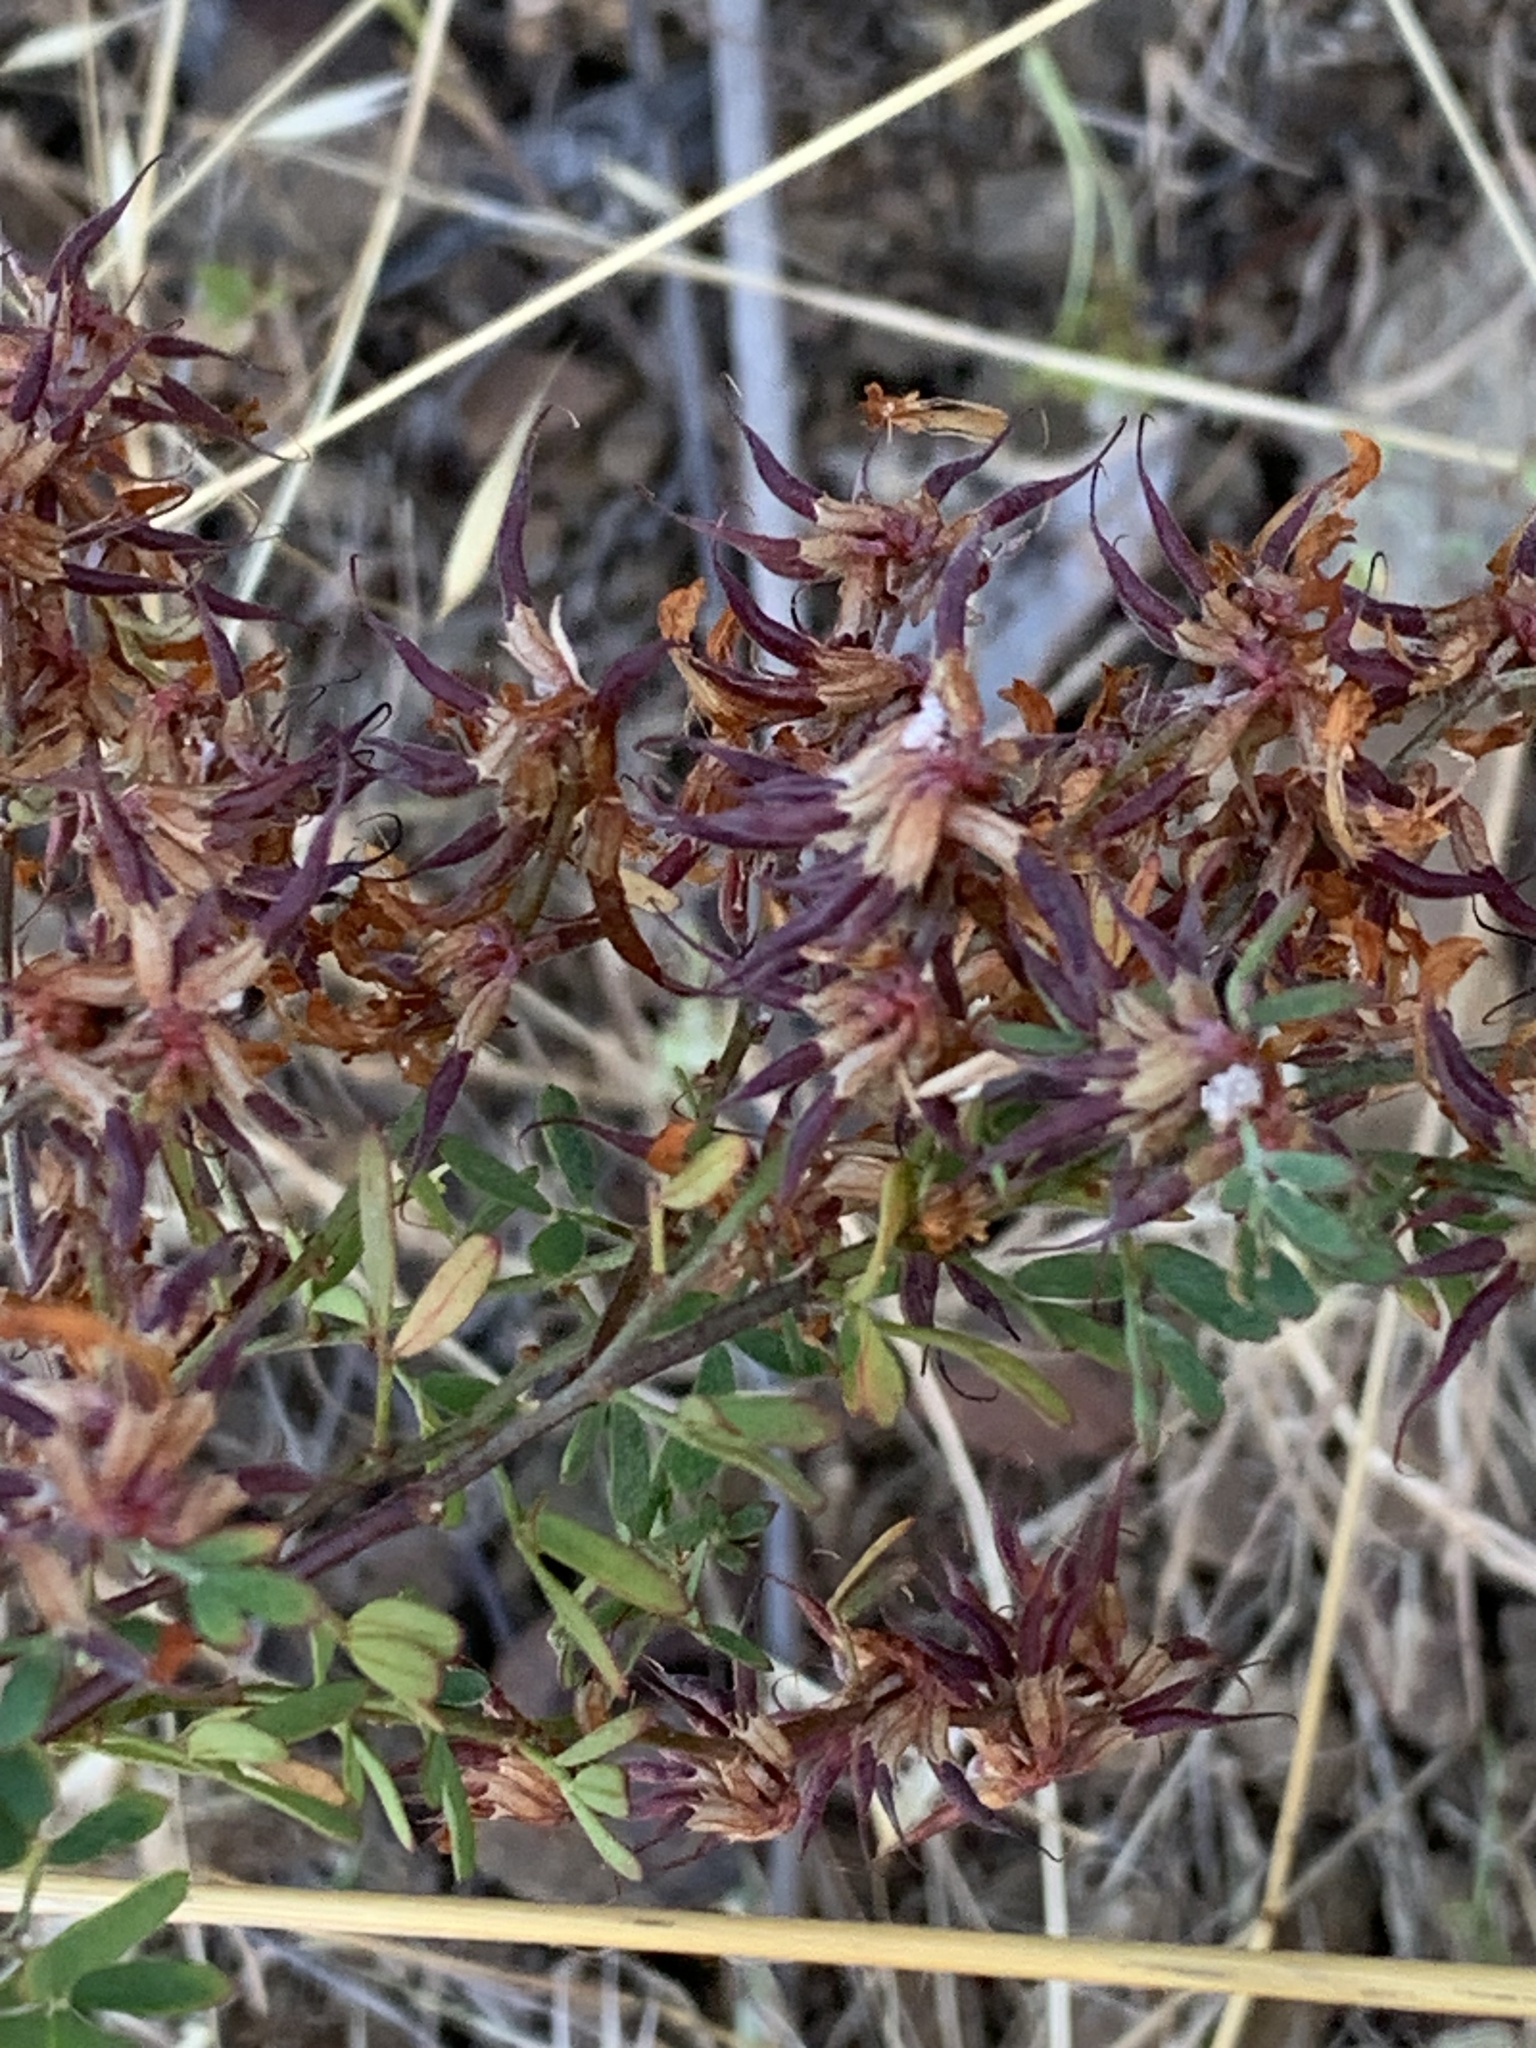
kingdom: Plantae
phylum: Tracheophyta
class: Magnoliopsida
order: Fabales
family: Fabaceae
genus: Acmispon
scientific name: Acmispon dendroideus
